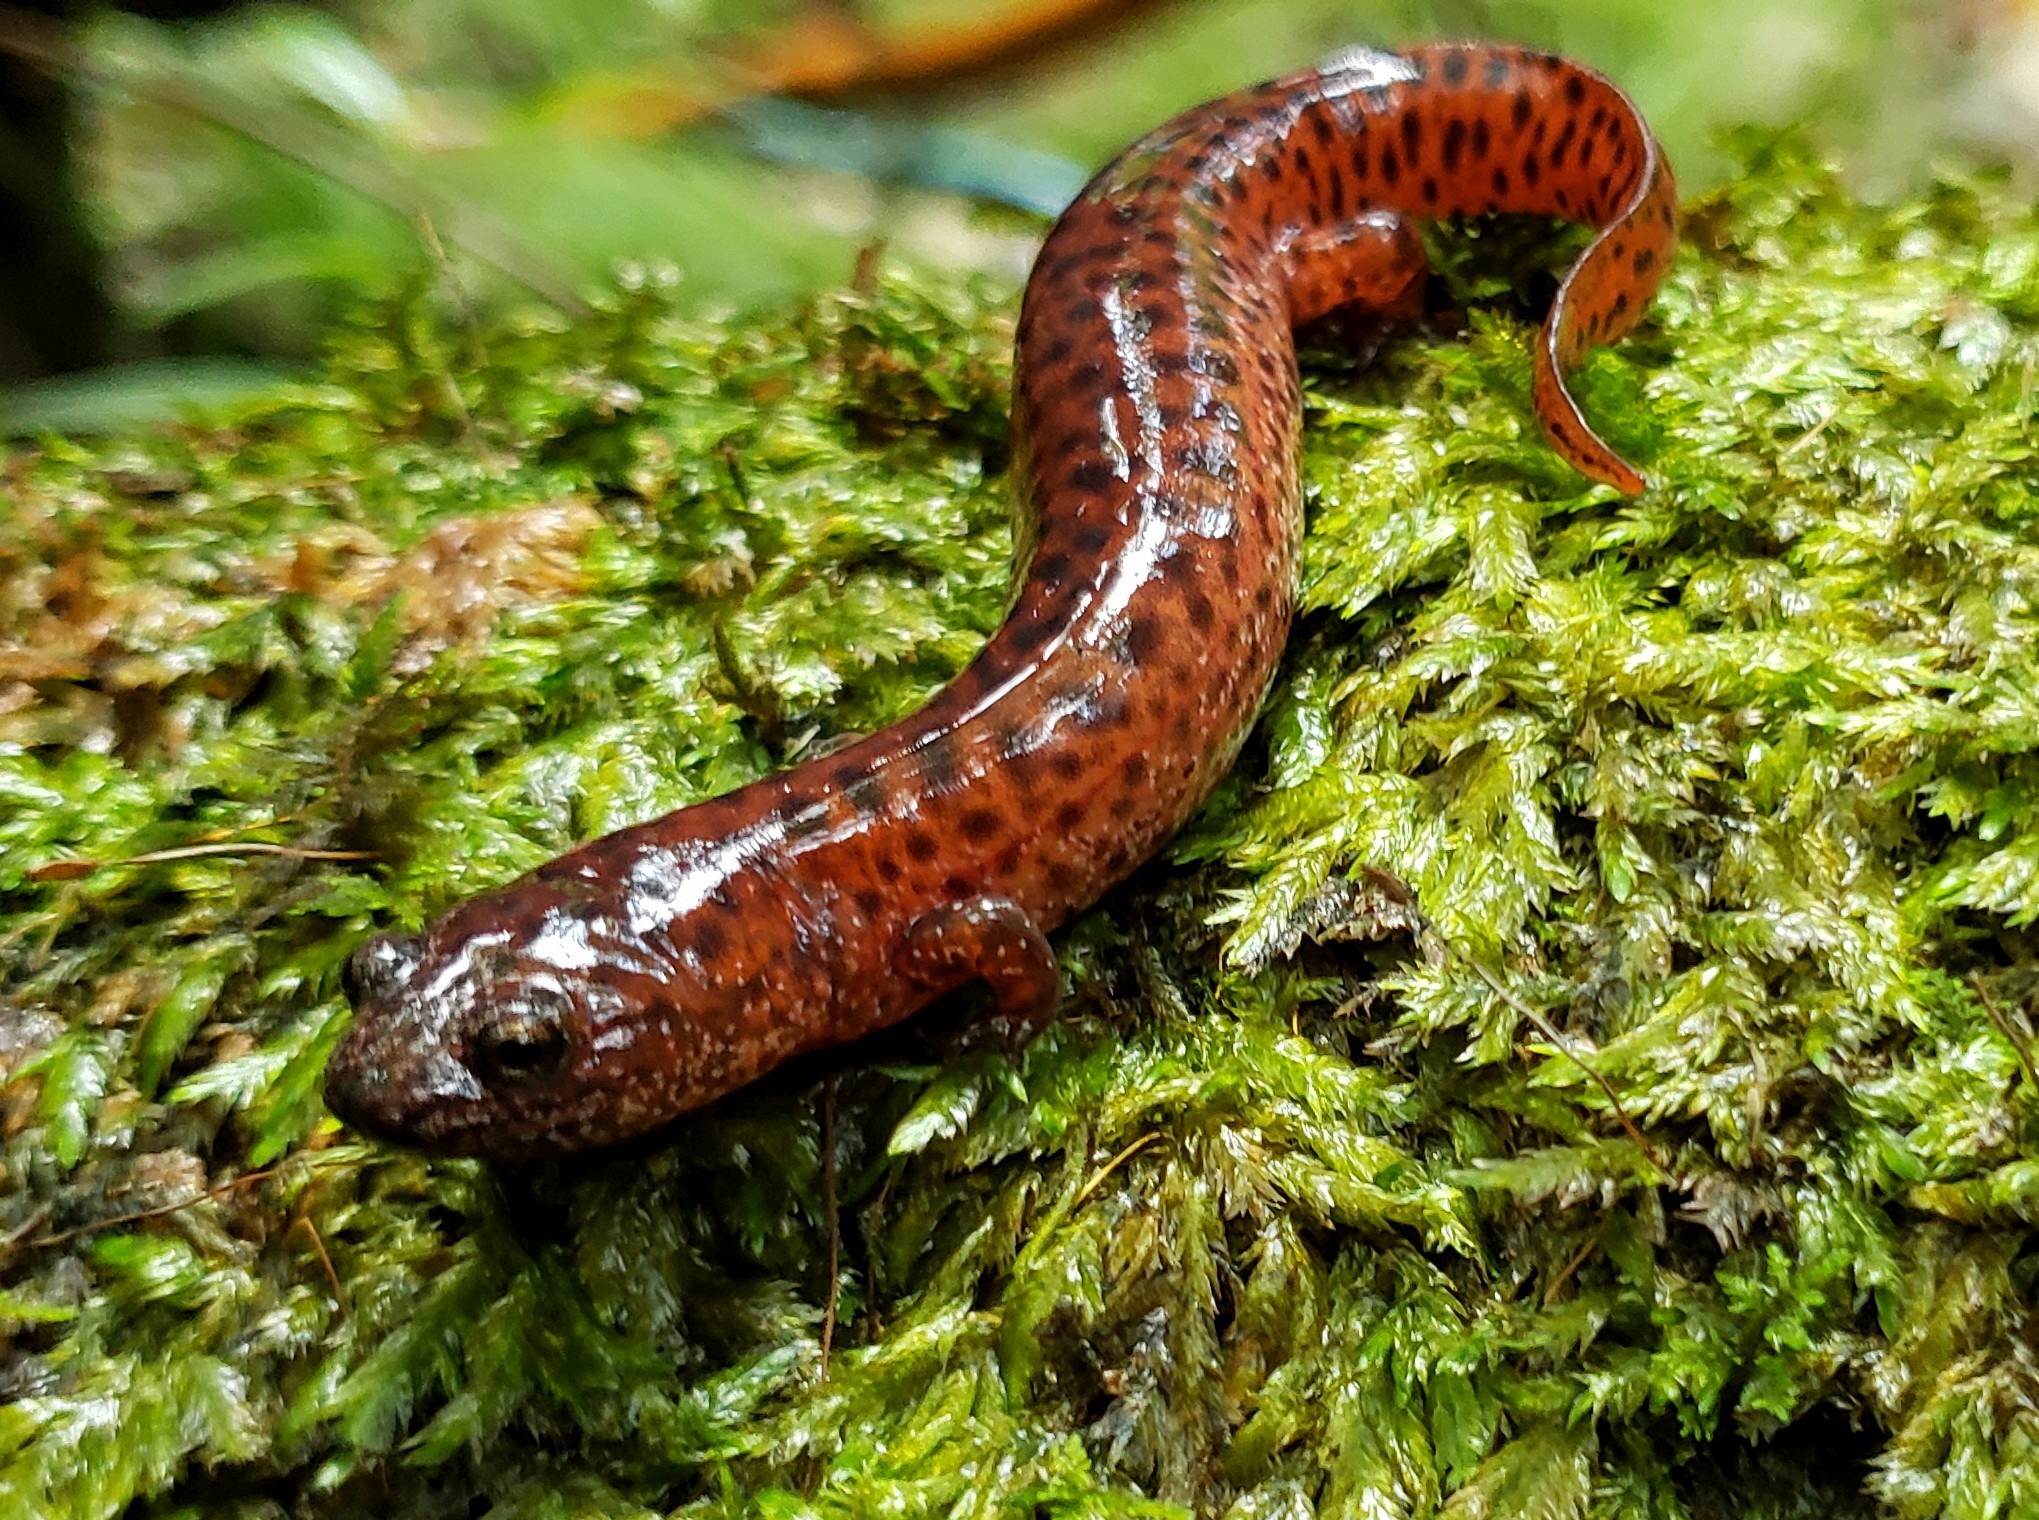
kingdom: Animalia
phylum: Chordata
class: Amphibia
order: Caudata
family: Plethodontidae
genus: Pseudotriton
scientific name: Pseudotriton ruber
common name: Red salamander
